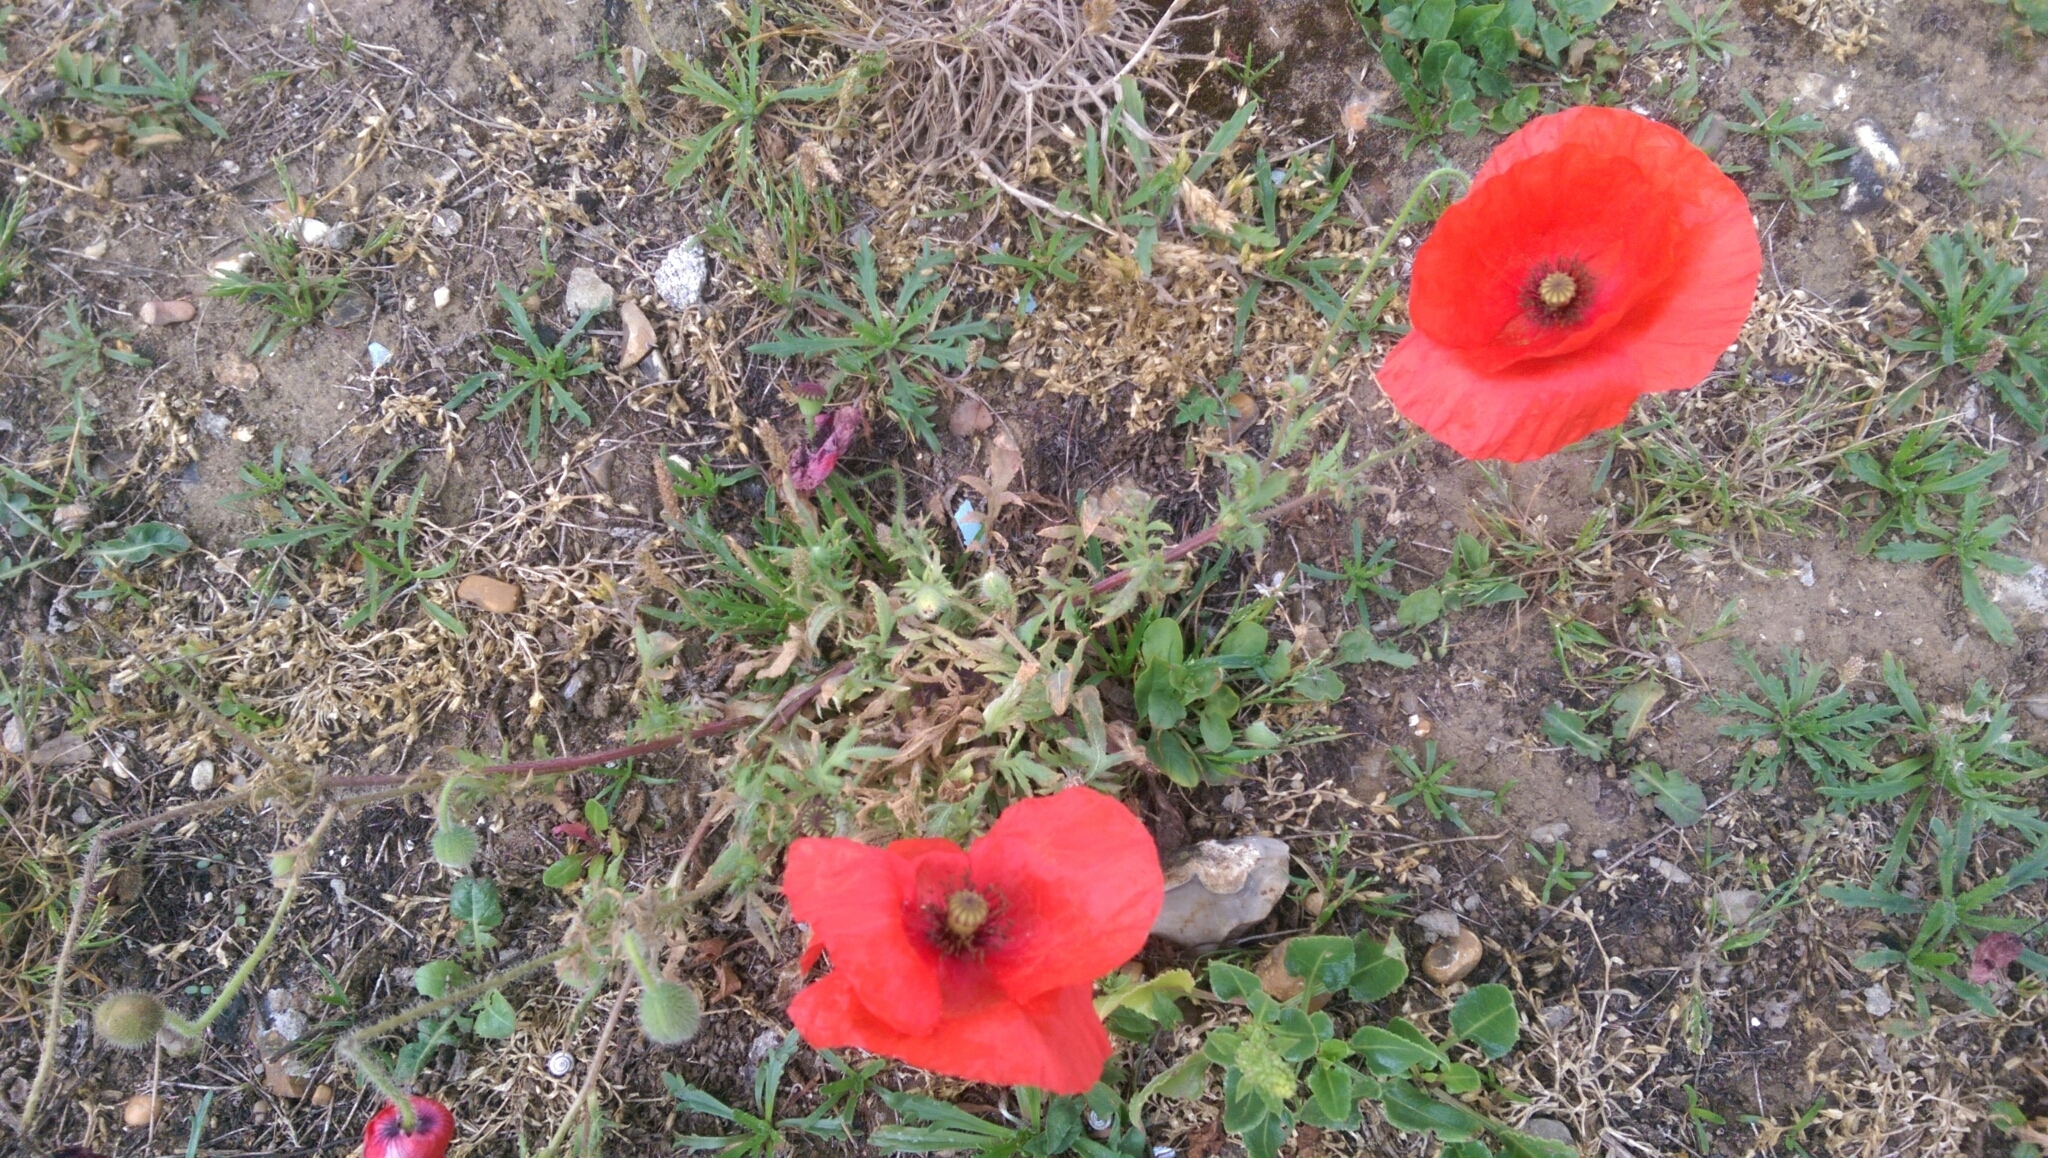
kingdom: Plantae
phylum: Tracheophyta
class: Magnoliopsida
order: Ranunculales
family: Papaveraceae
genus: Papaver
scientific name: Papaver rhoeas
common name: Corn poppy
